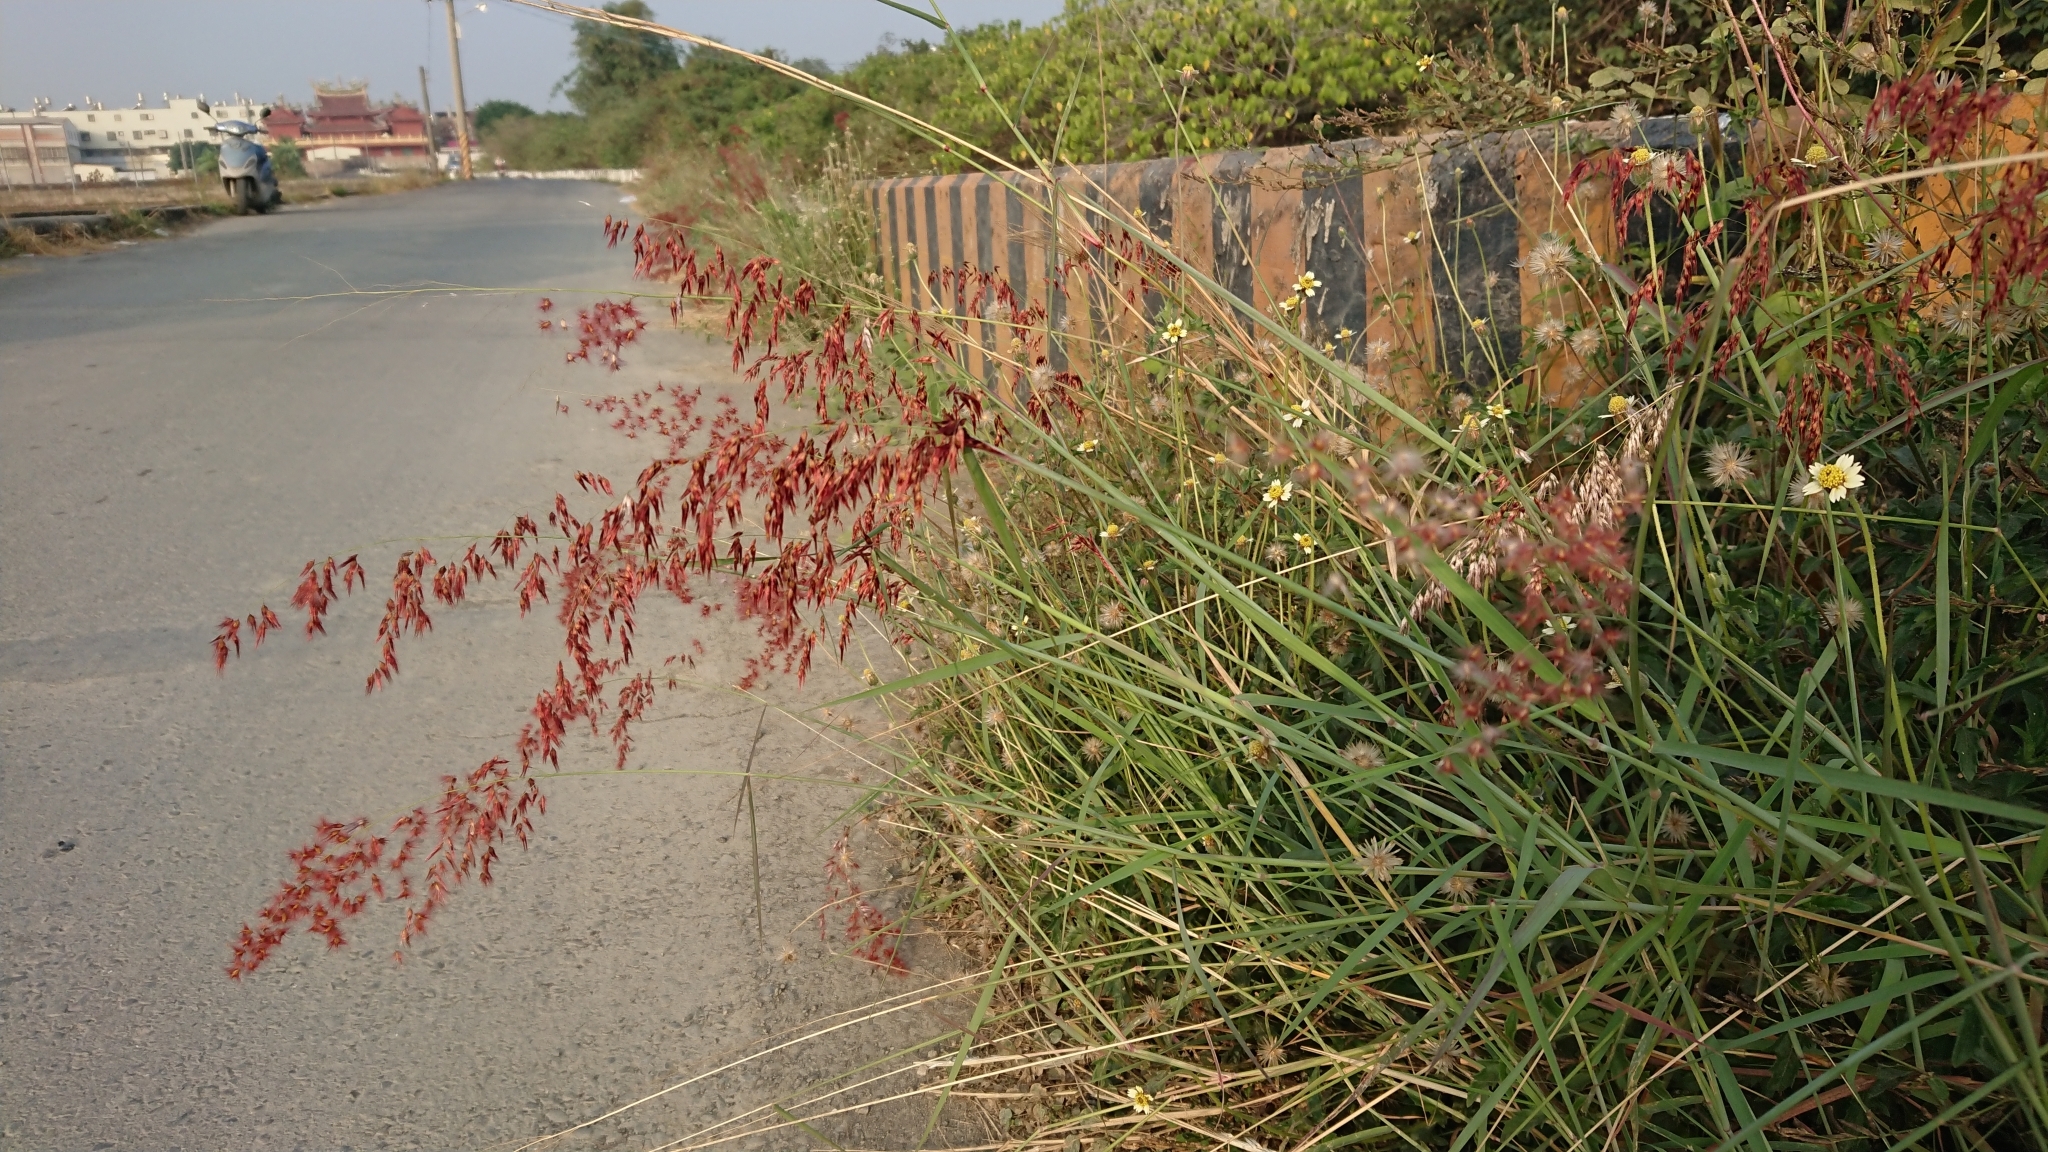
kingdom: Plantae
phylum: Tracheophyta
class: Liliopsida
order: Poales
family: Poaceae
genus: Melinis
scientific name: Melinis repens
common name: Rose natal grass
